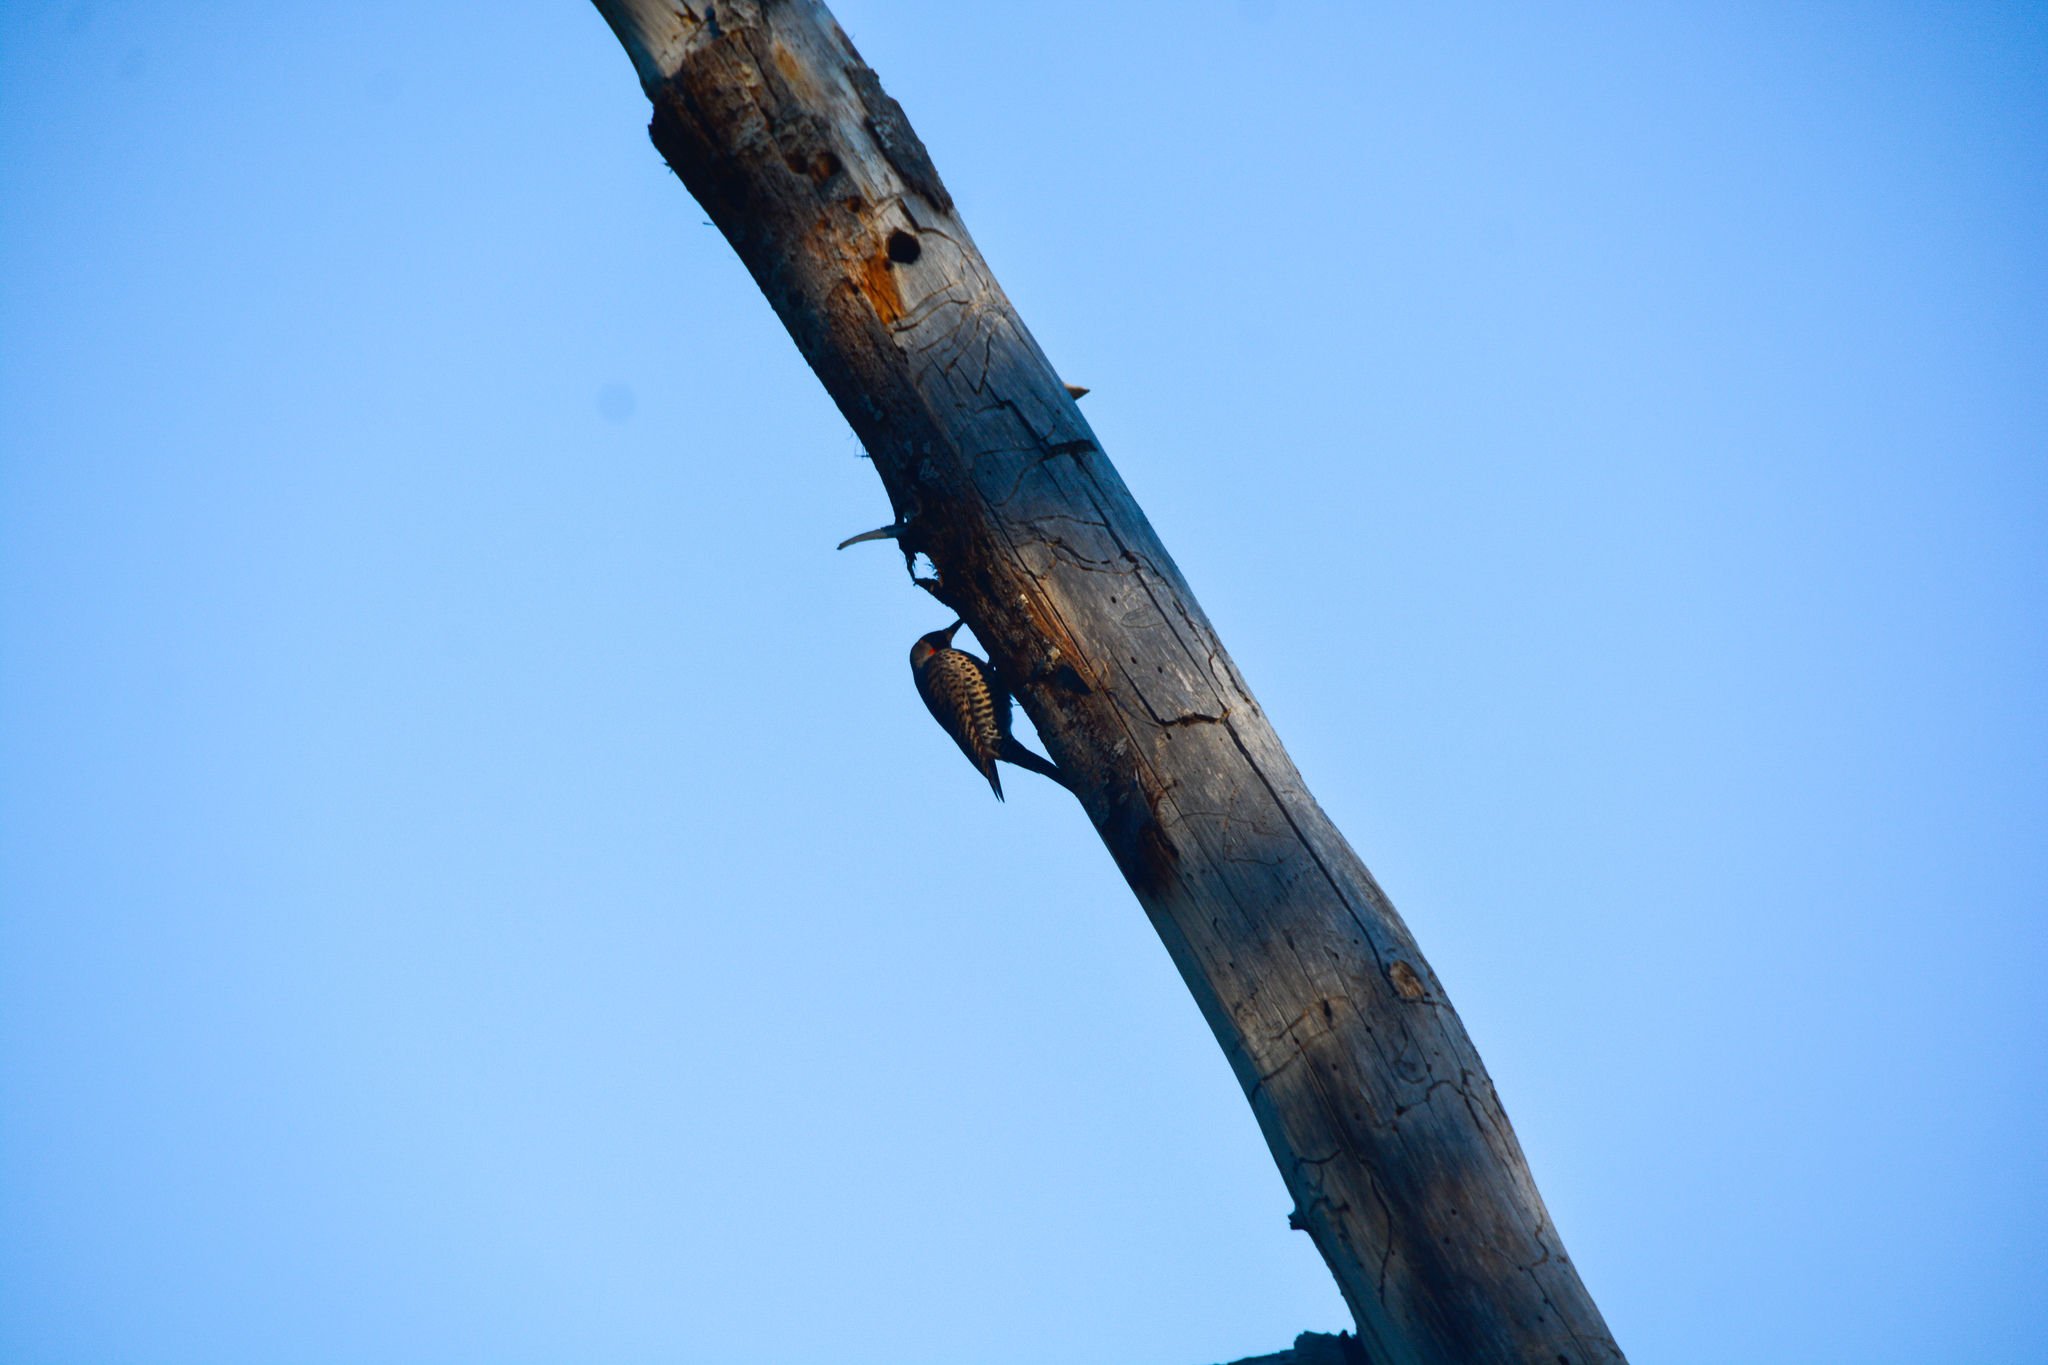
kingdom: Animalia
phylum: Chordata
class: Aves
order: Piciformes
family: Picidae
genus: Colaptes
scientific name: Colaptes auratus
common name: Northern flicker
